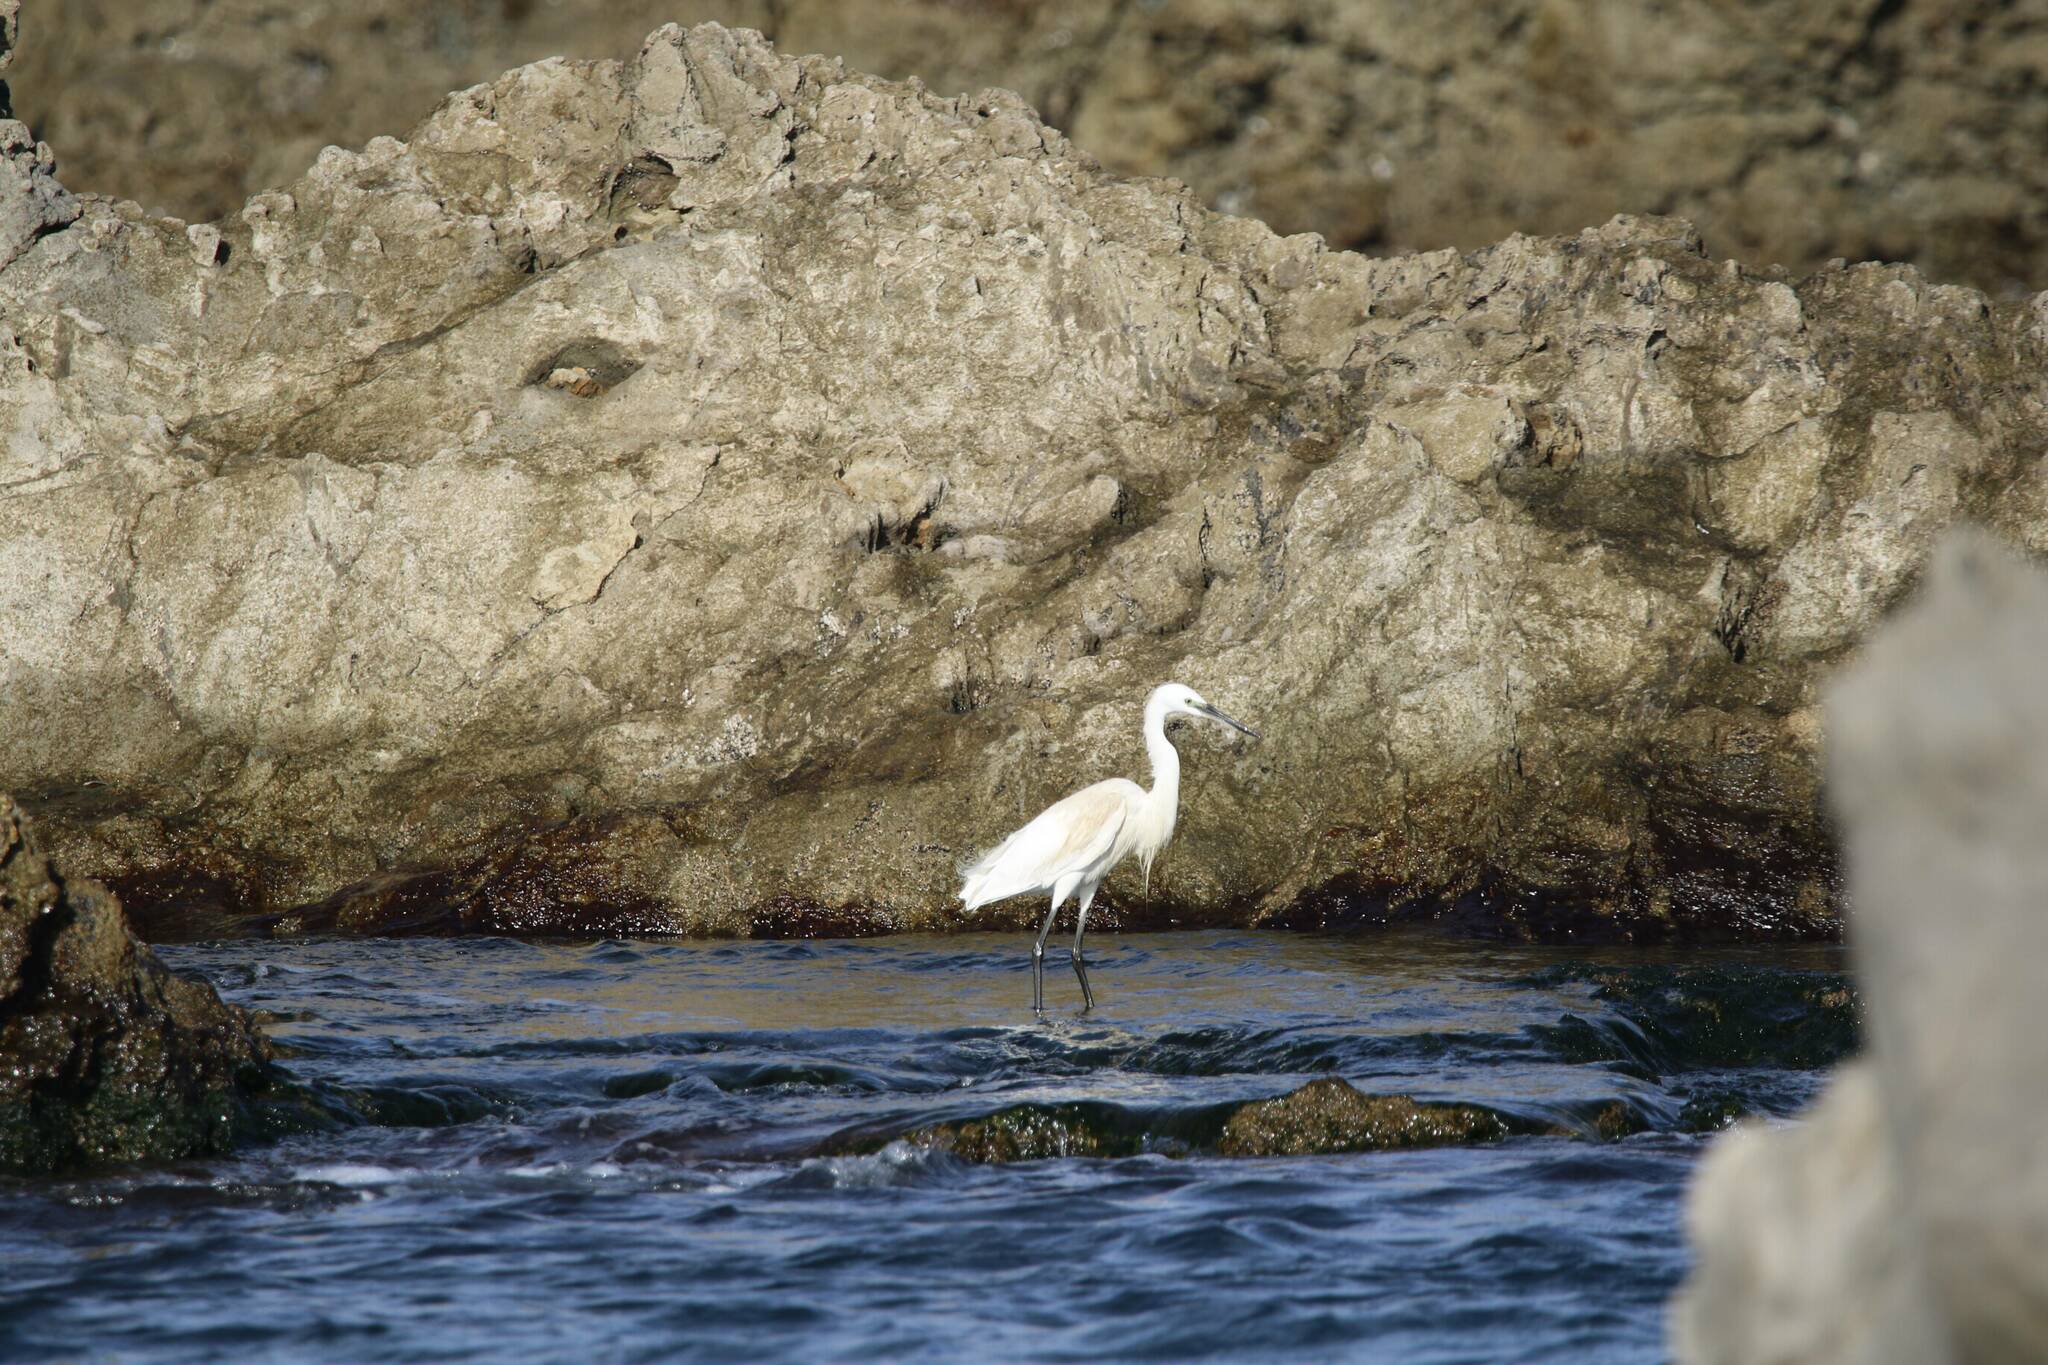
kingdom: Animalia
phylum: Chordata
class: Aves
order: Pelecaniformes
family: Ardeidae
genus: Egretta
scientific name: Egretta garzetta
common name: Little egret
